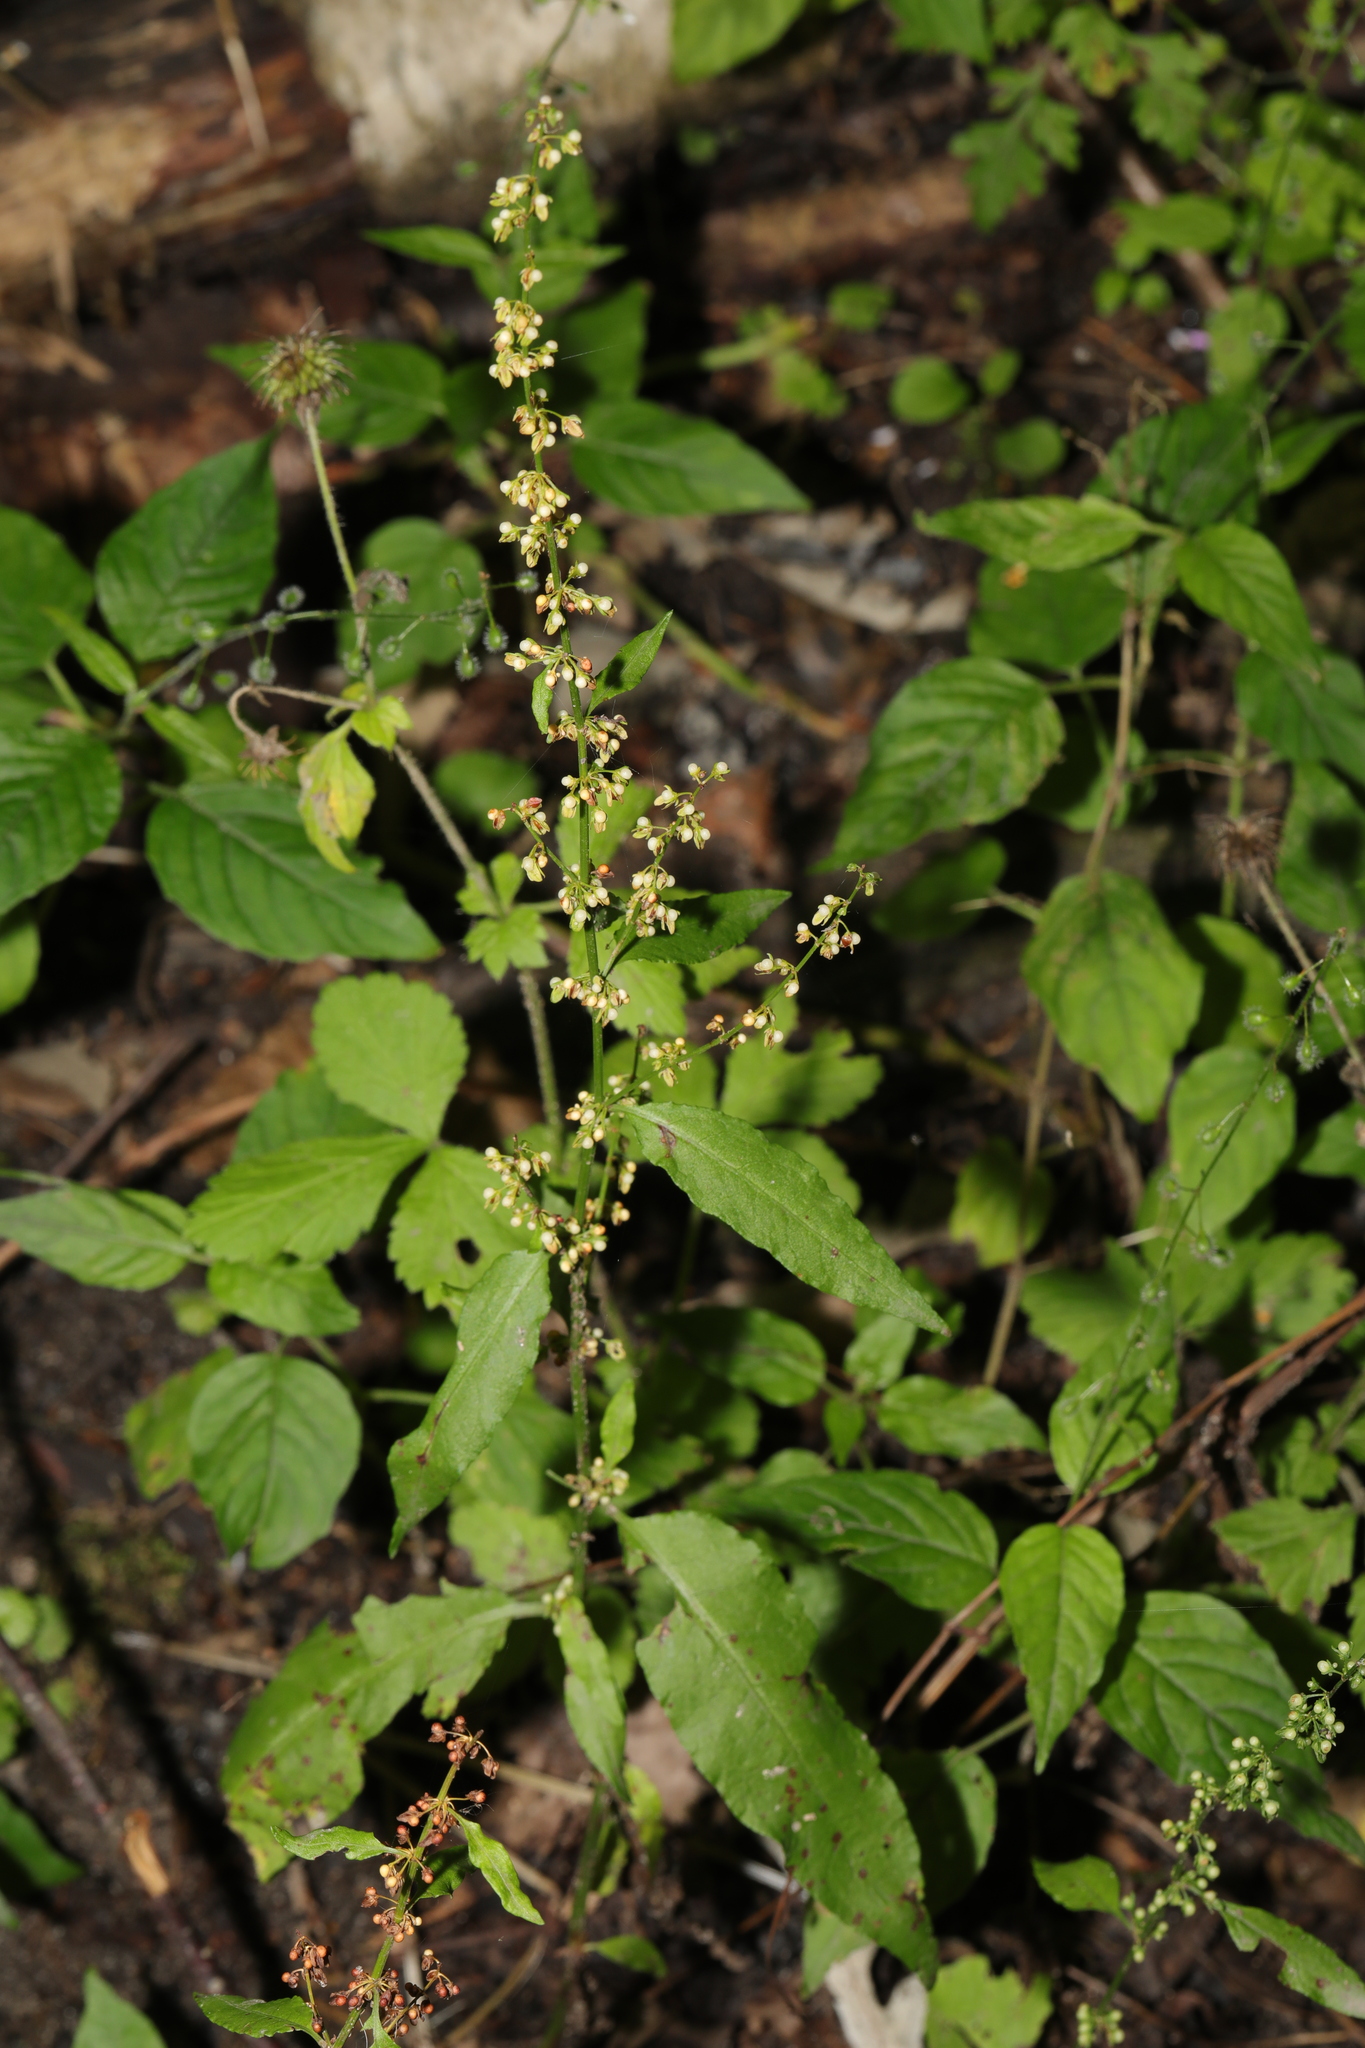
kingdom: Plantae
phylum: Tracheophyta
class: Magnoliopsida
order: Caryophyllales
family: Polygonaceae
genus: Rumex
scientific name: Rumex sanguineus
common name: Wood dock
